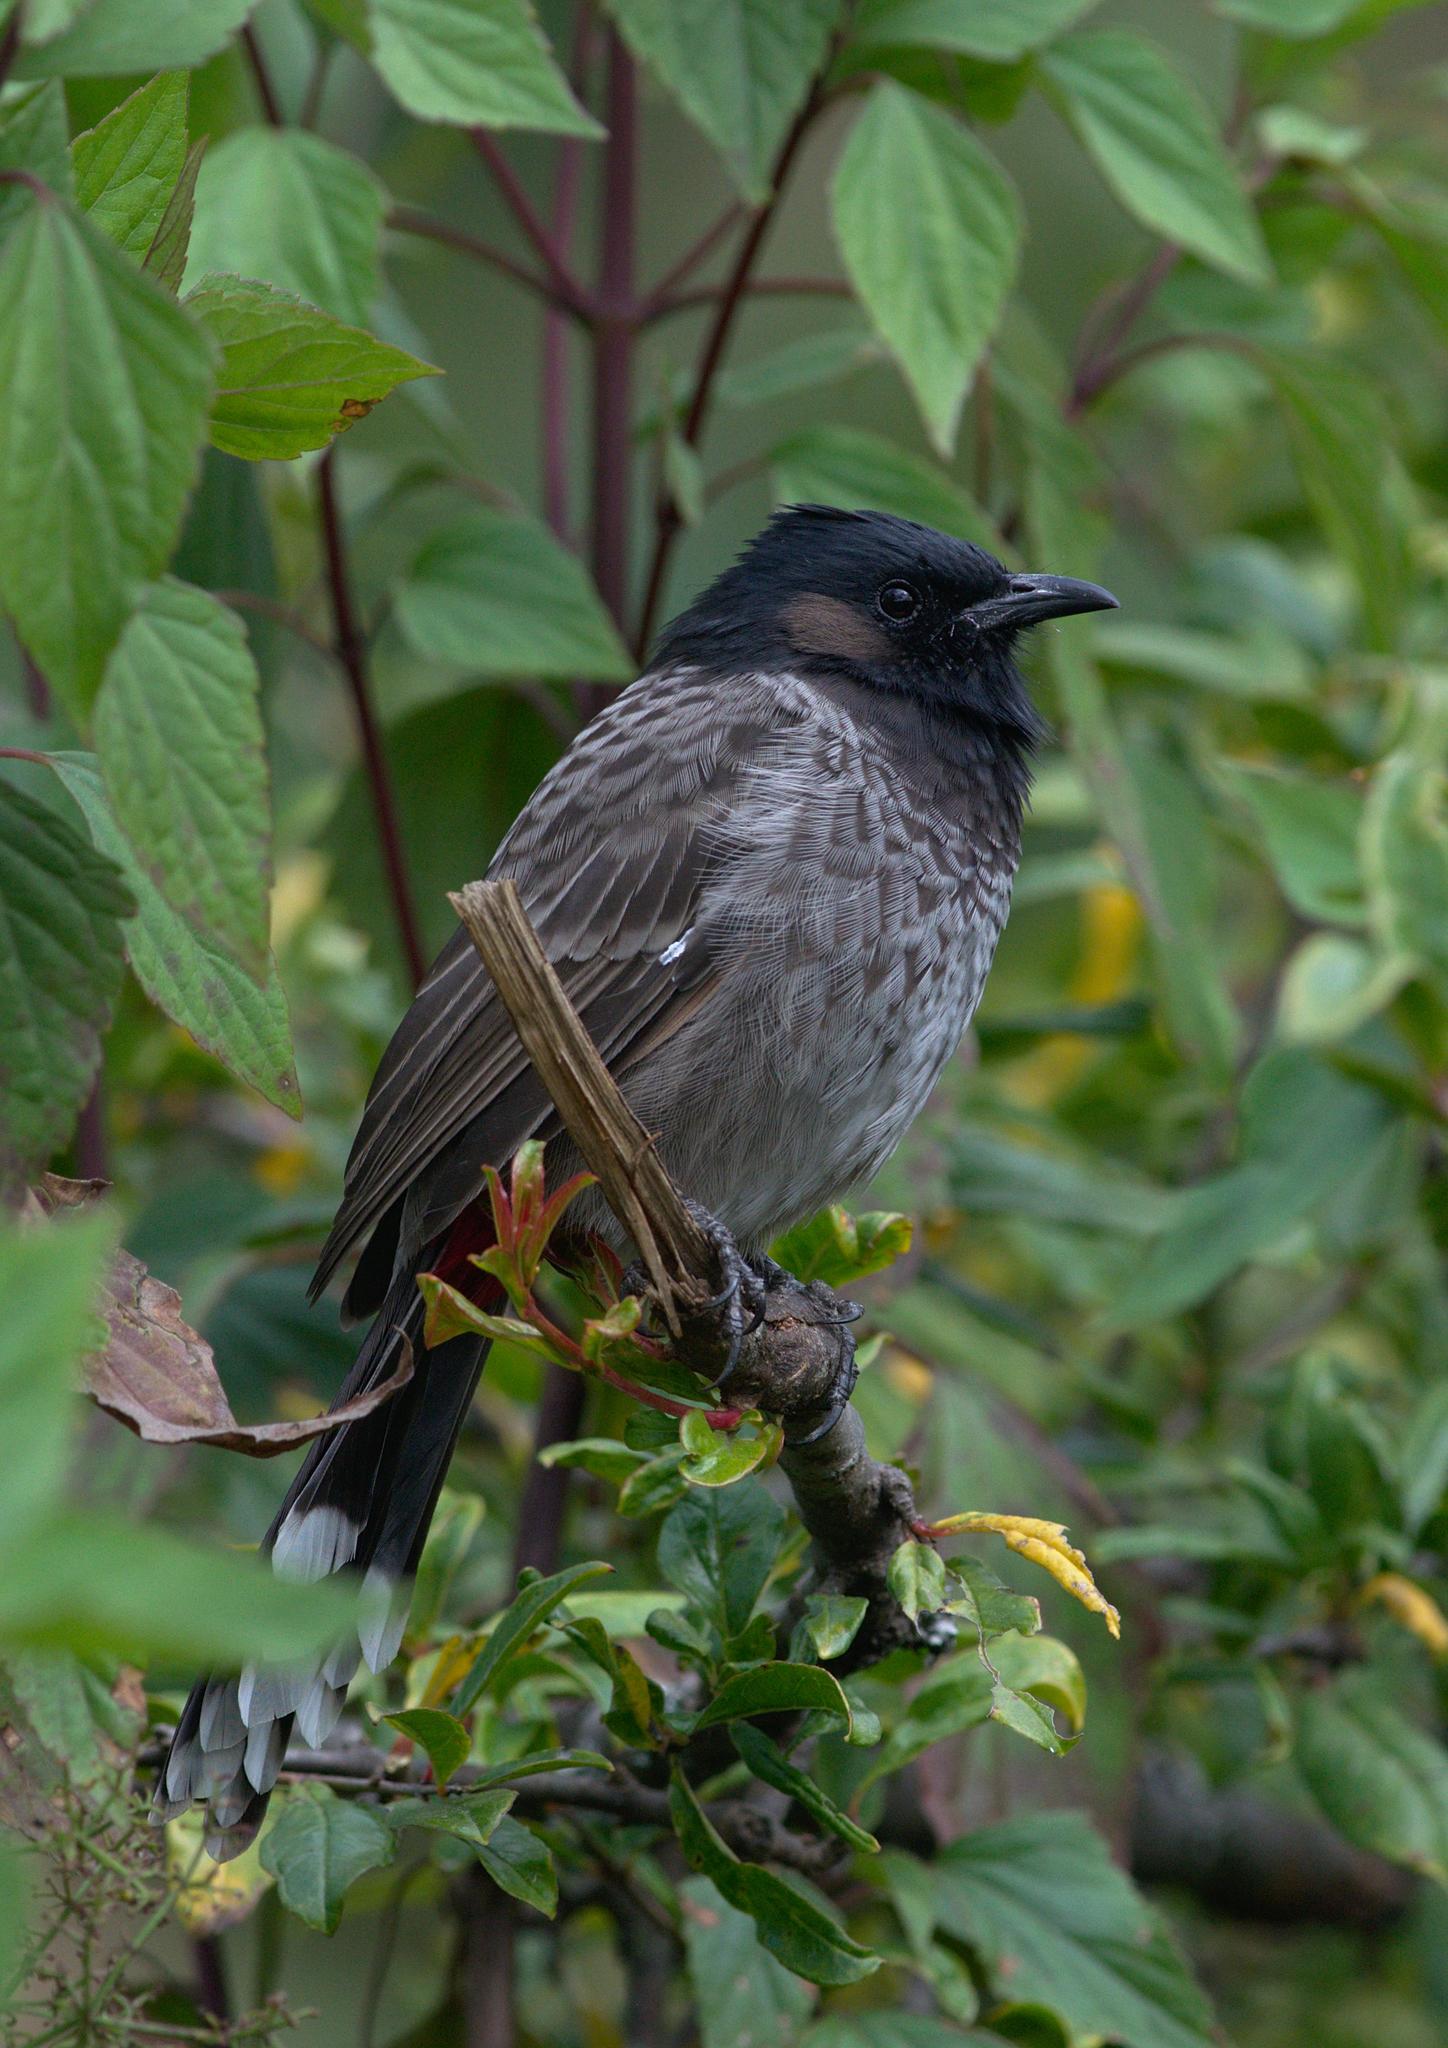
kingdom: Animalia
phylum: Chordata
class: Aves
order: Passeriformes
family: Pycnonotidae
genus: Pycnonotus
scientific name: Pycnonotus cafer
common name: Red-vented bulbul
